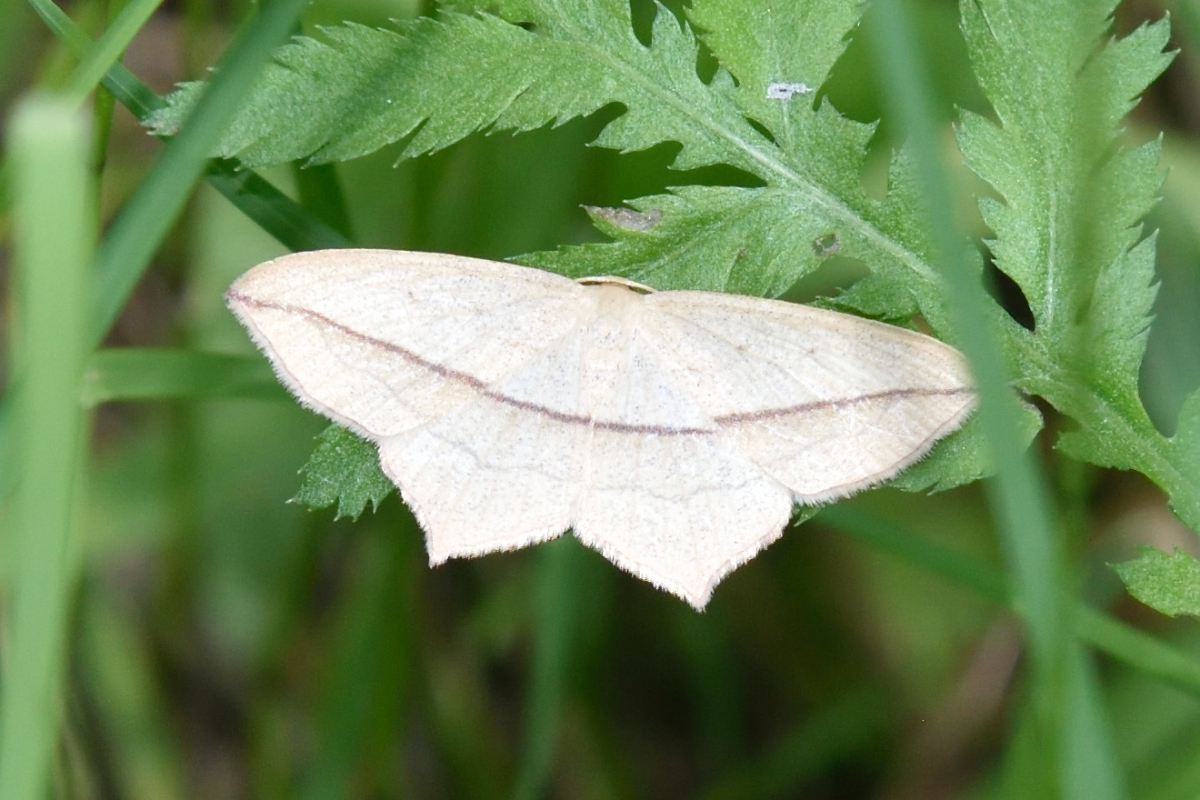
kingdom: Animalia
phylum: Arthropoda
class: Insecta
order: Lepidoptera
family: Geometridae
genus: Timandra
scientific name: Timandra comae
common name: Blood-vein
